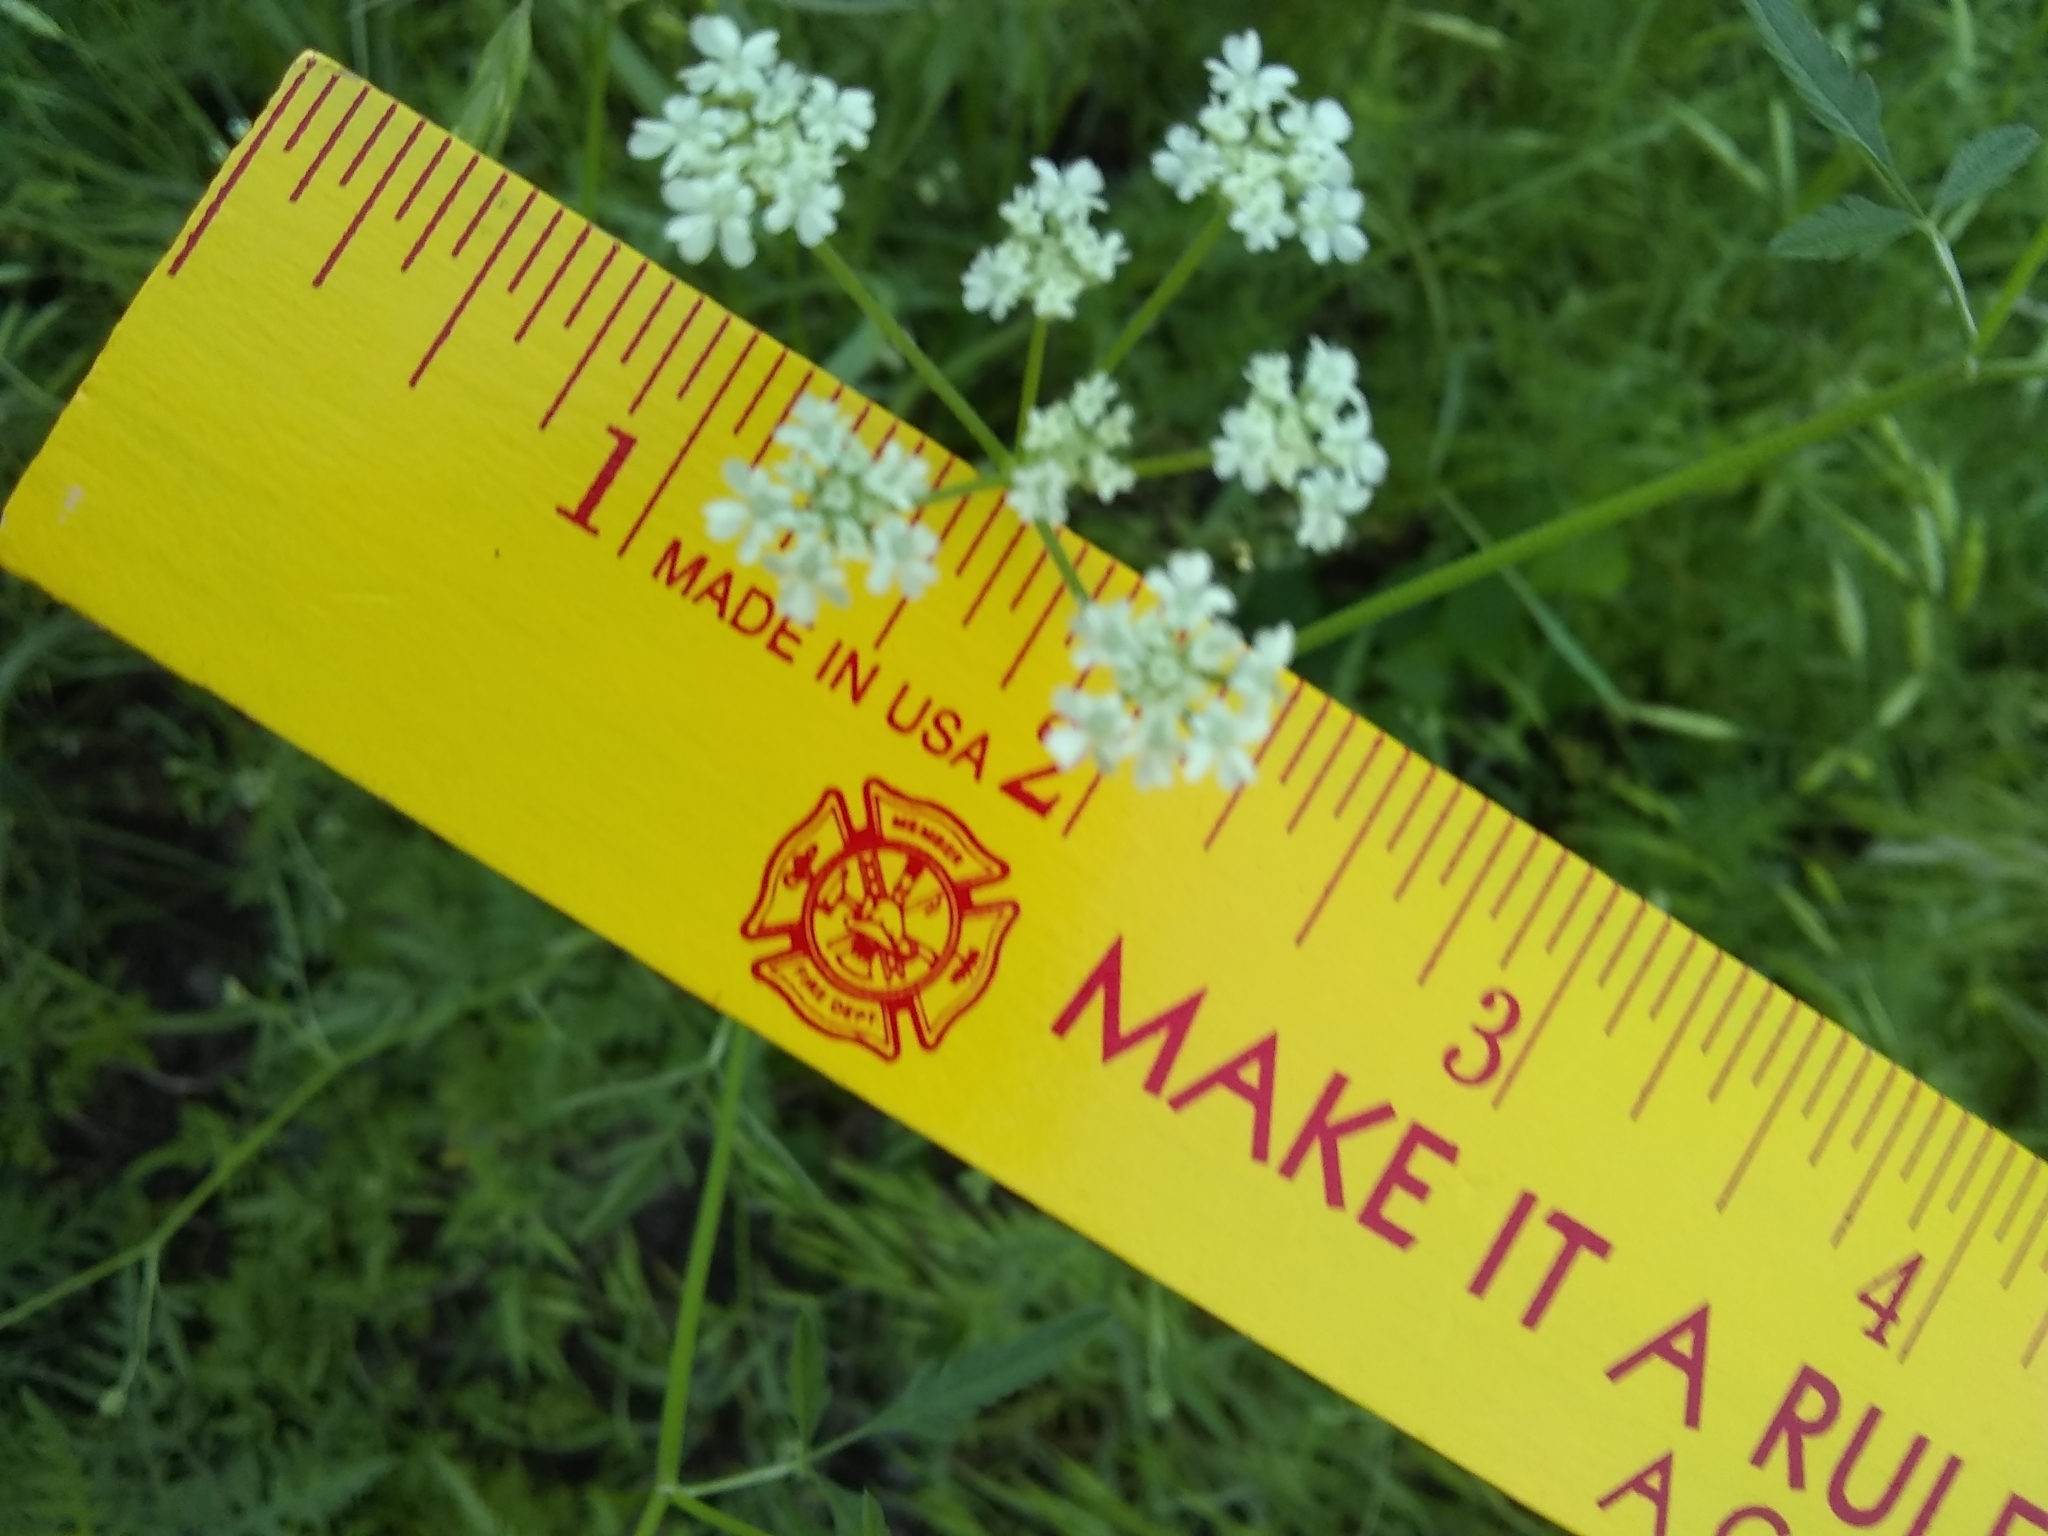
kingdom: Plantae
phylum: Tracheophyta
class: Magnoliopsida
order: Apiales
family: Apiaceae
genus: Torilis
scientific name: Torilis arvensis
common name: Spreading hedge-parsley
